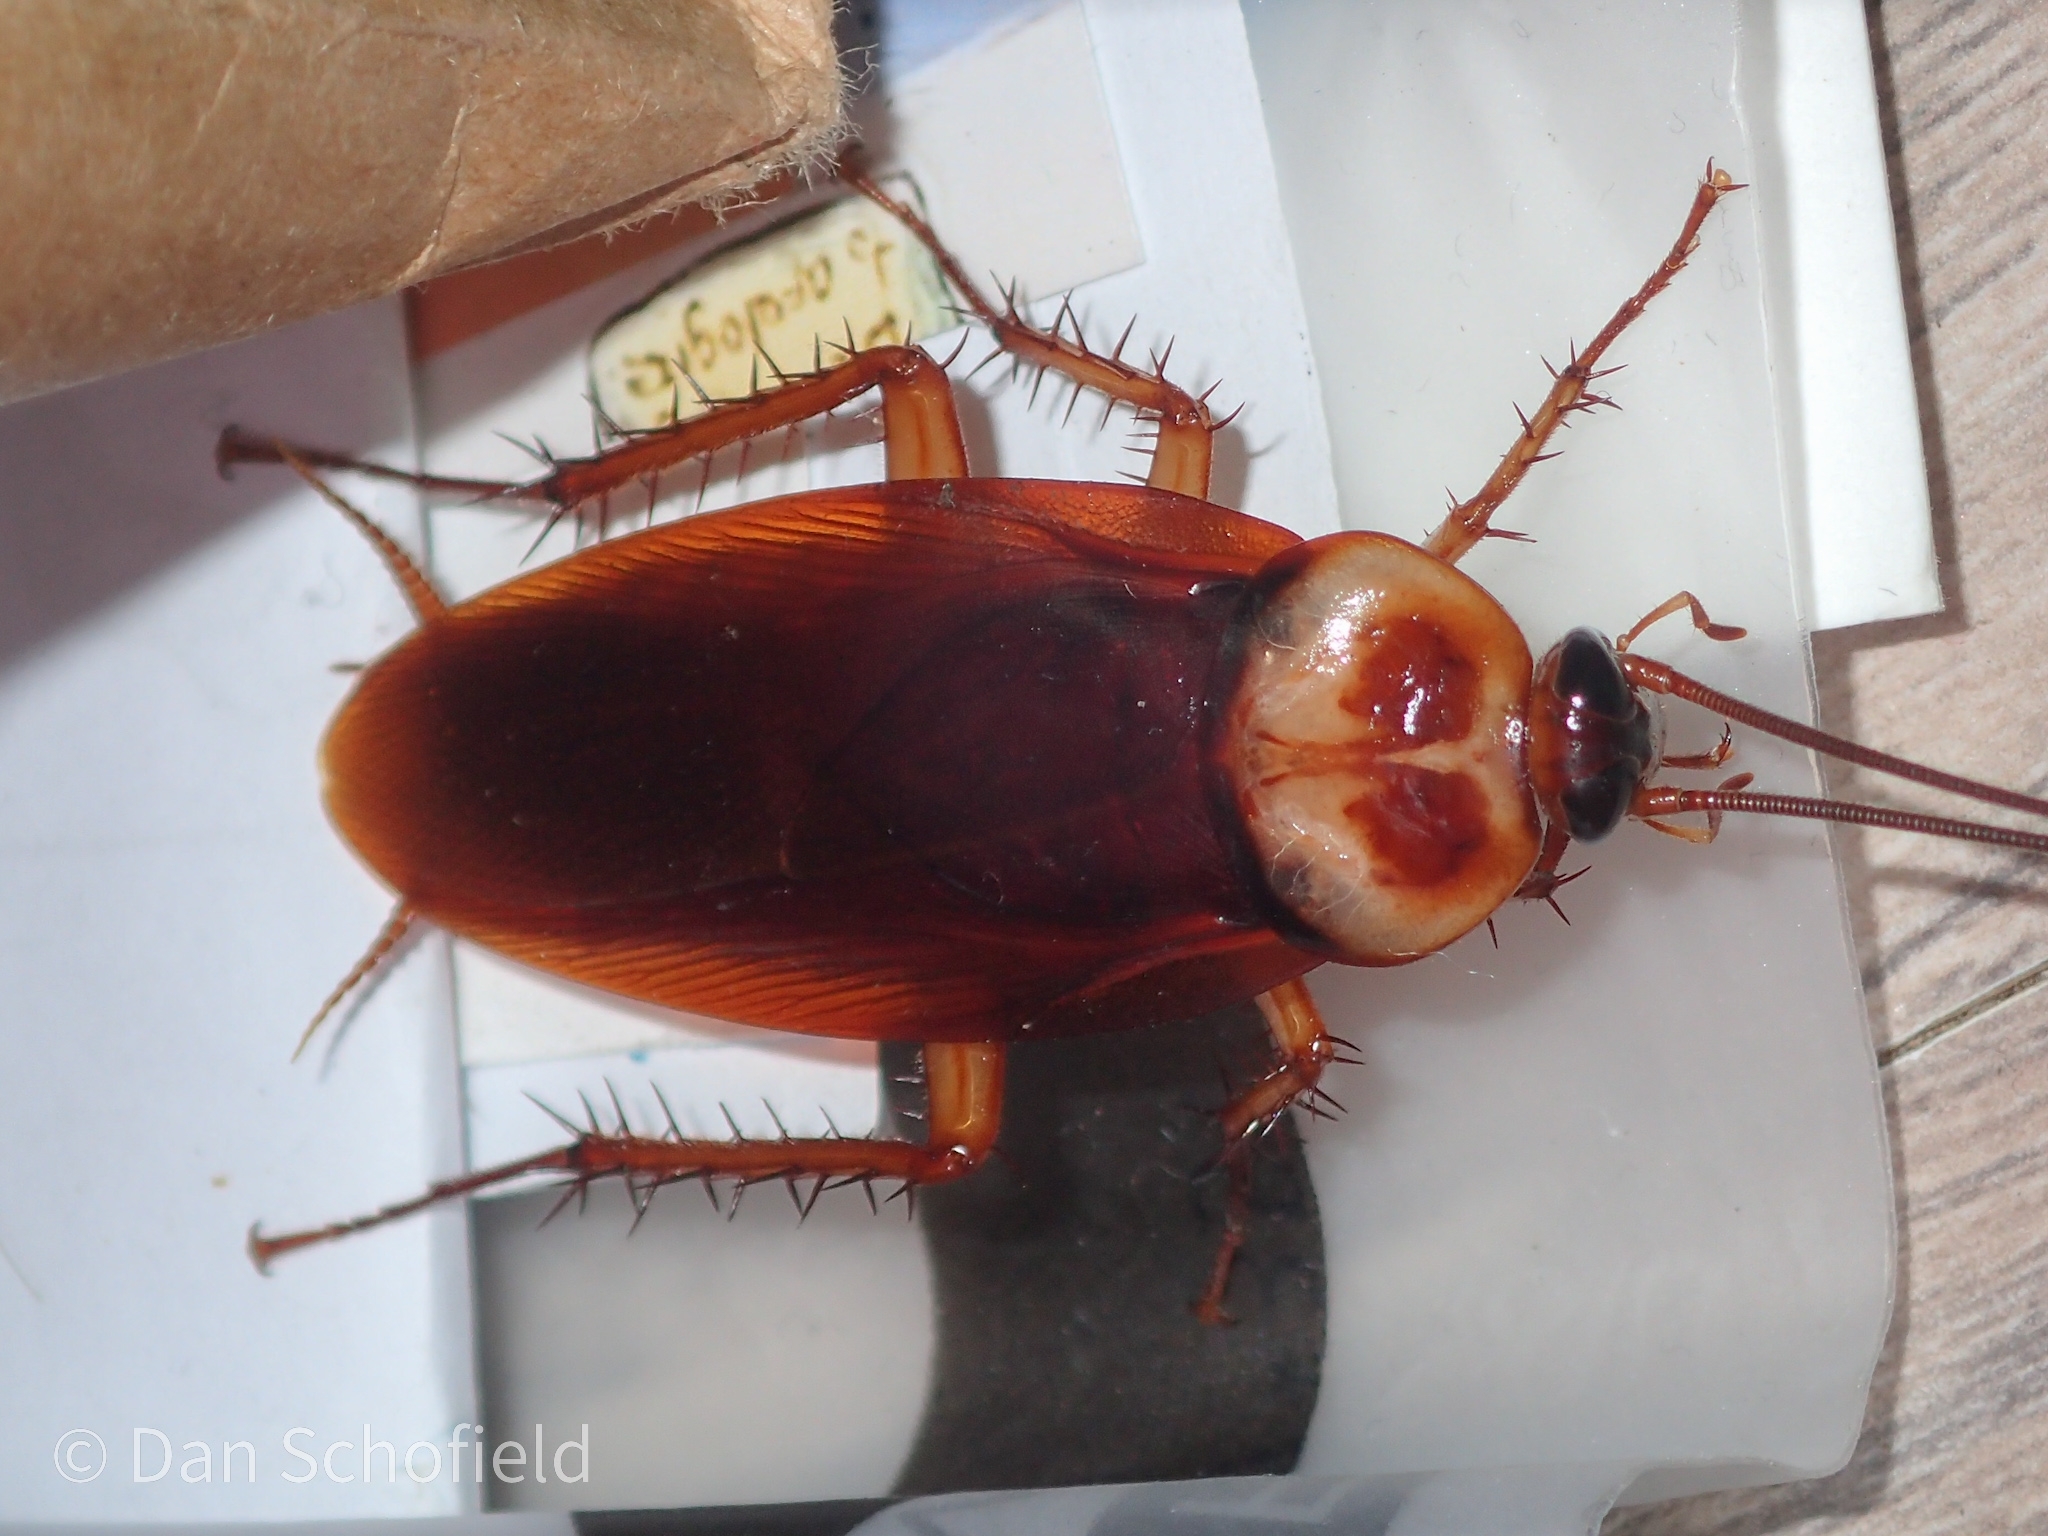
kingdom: Animalia
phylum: Arthropoda
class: Insecta
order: Blattodea
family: Blattidae
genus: Periplaneta
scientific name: Periplaneta americana
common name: American cockroach
